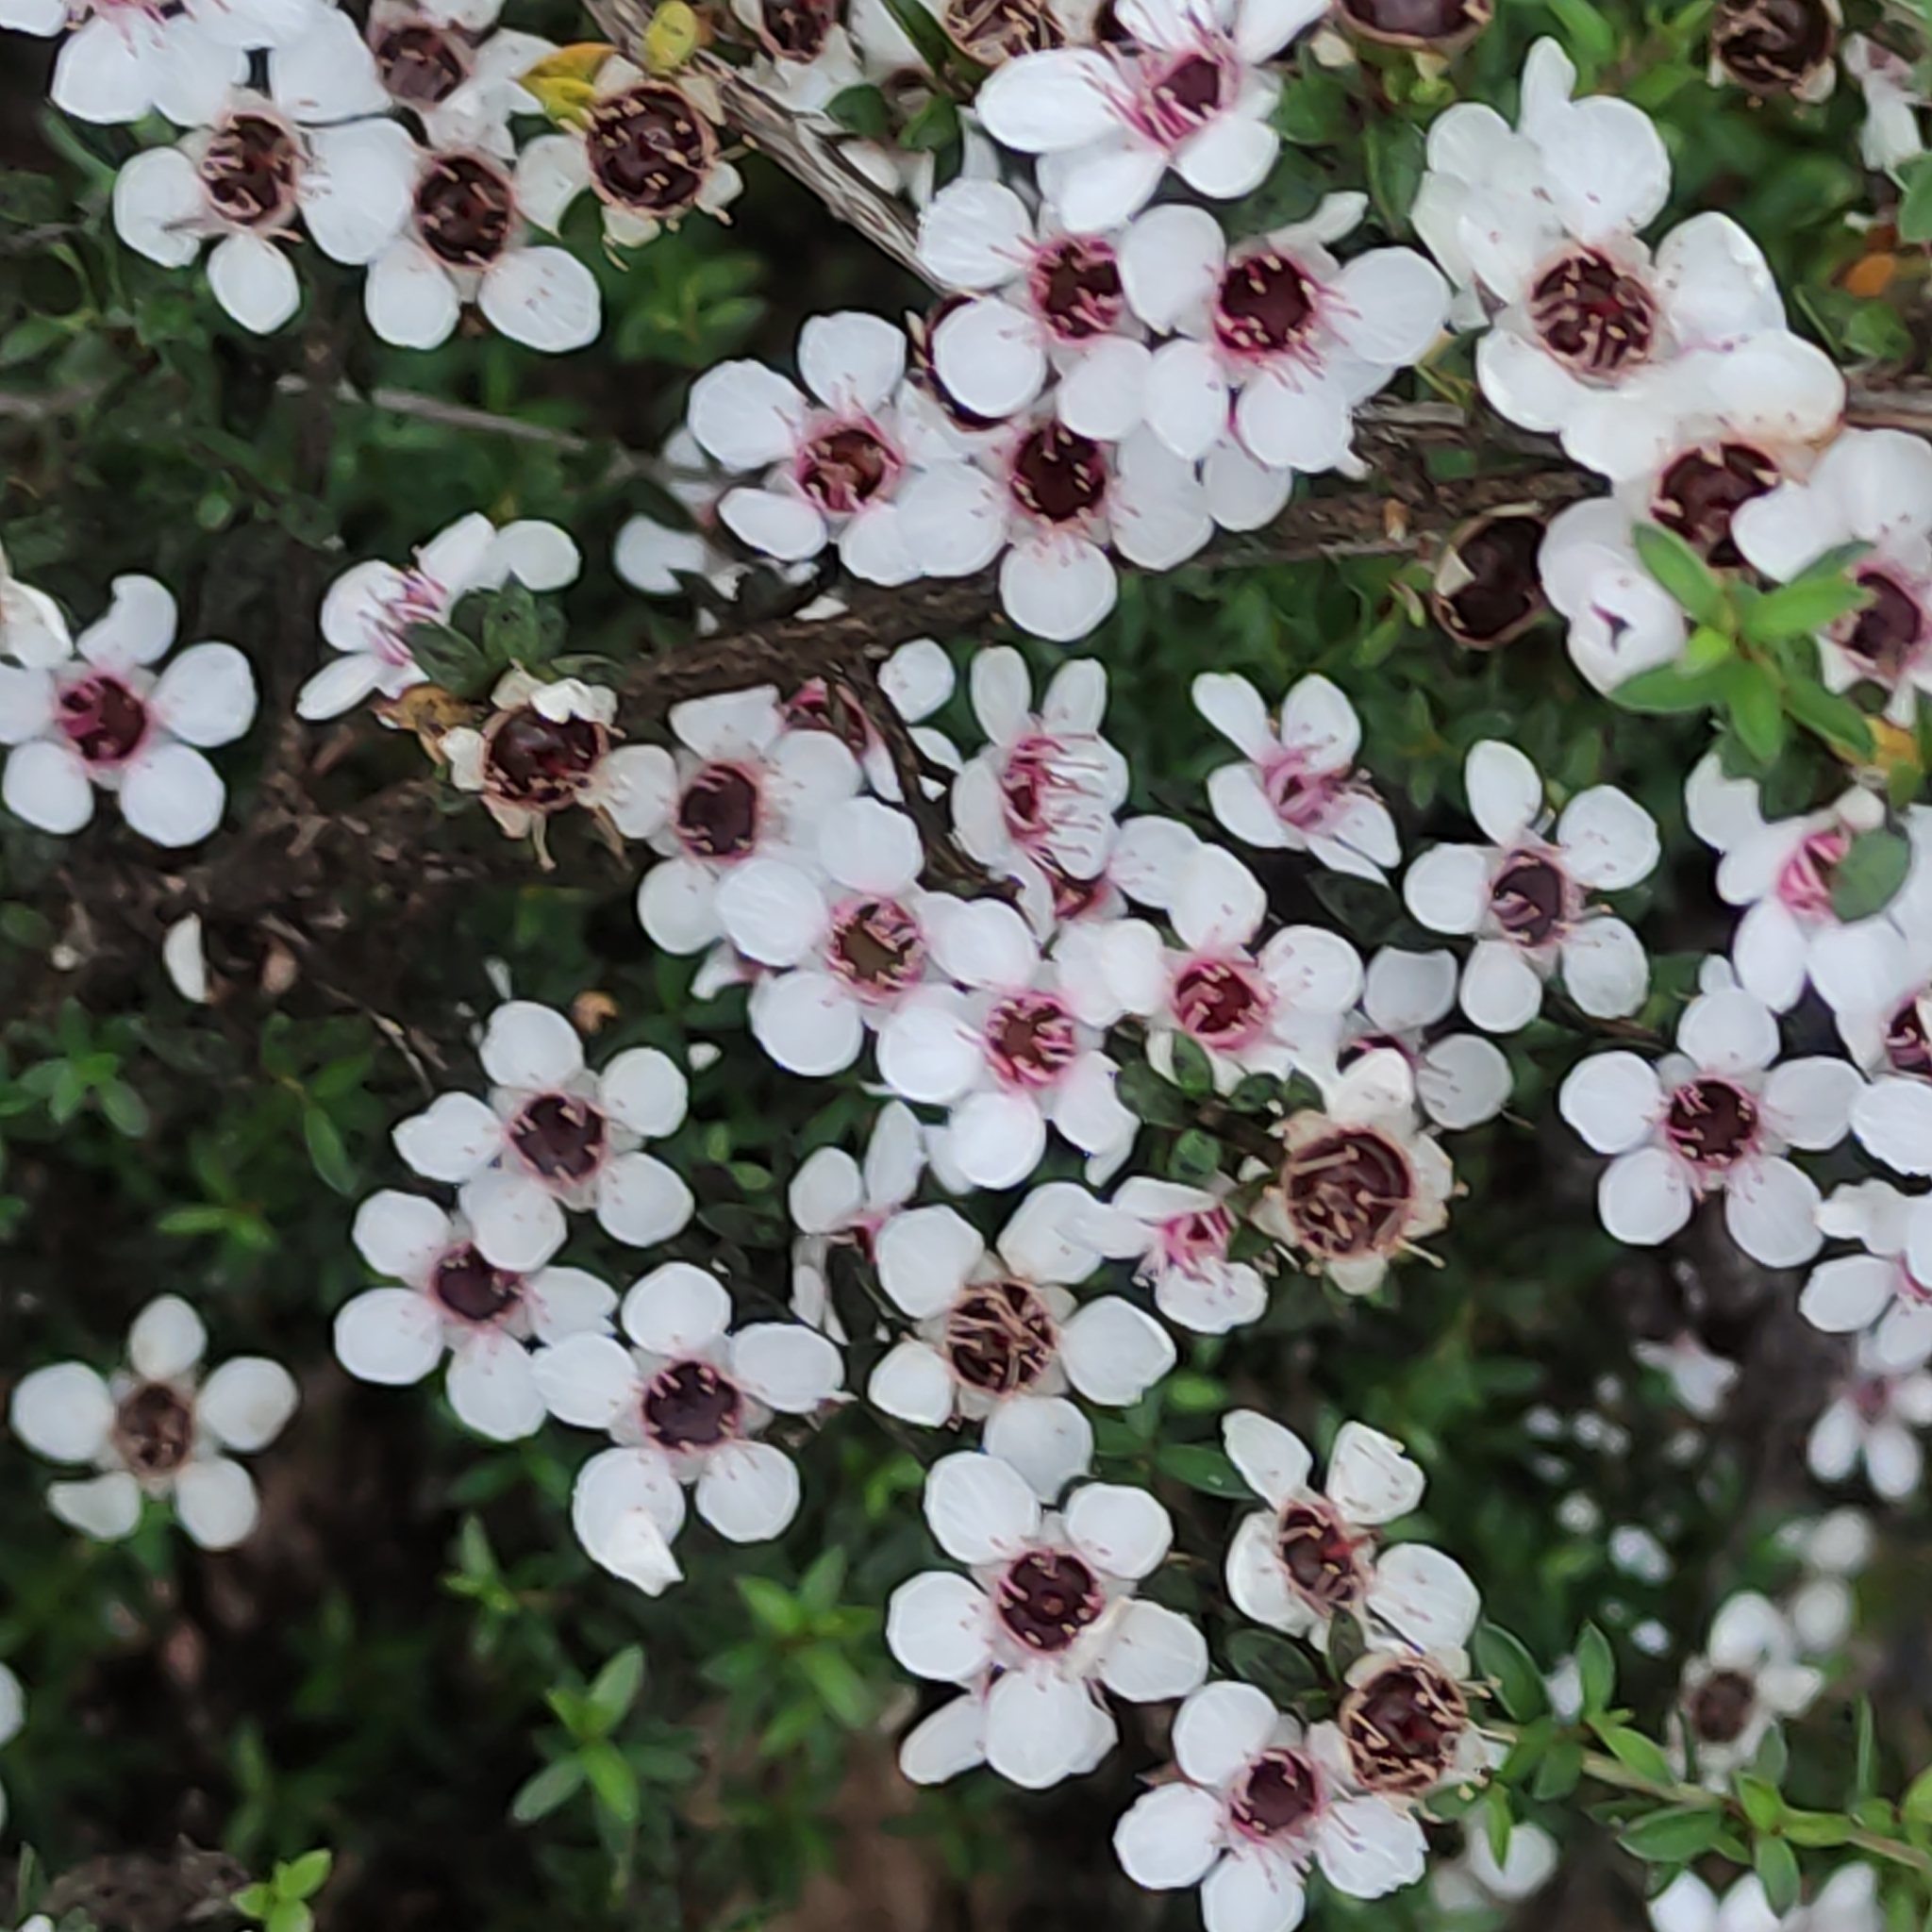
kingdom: Plantae
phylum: Tracheophyta
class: Magnoliopsida
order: Myrtales
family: Myrtaceae
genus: Leptospermum
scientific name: Leptospermum scoparium
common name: Broom tea-tree
